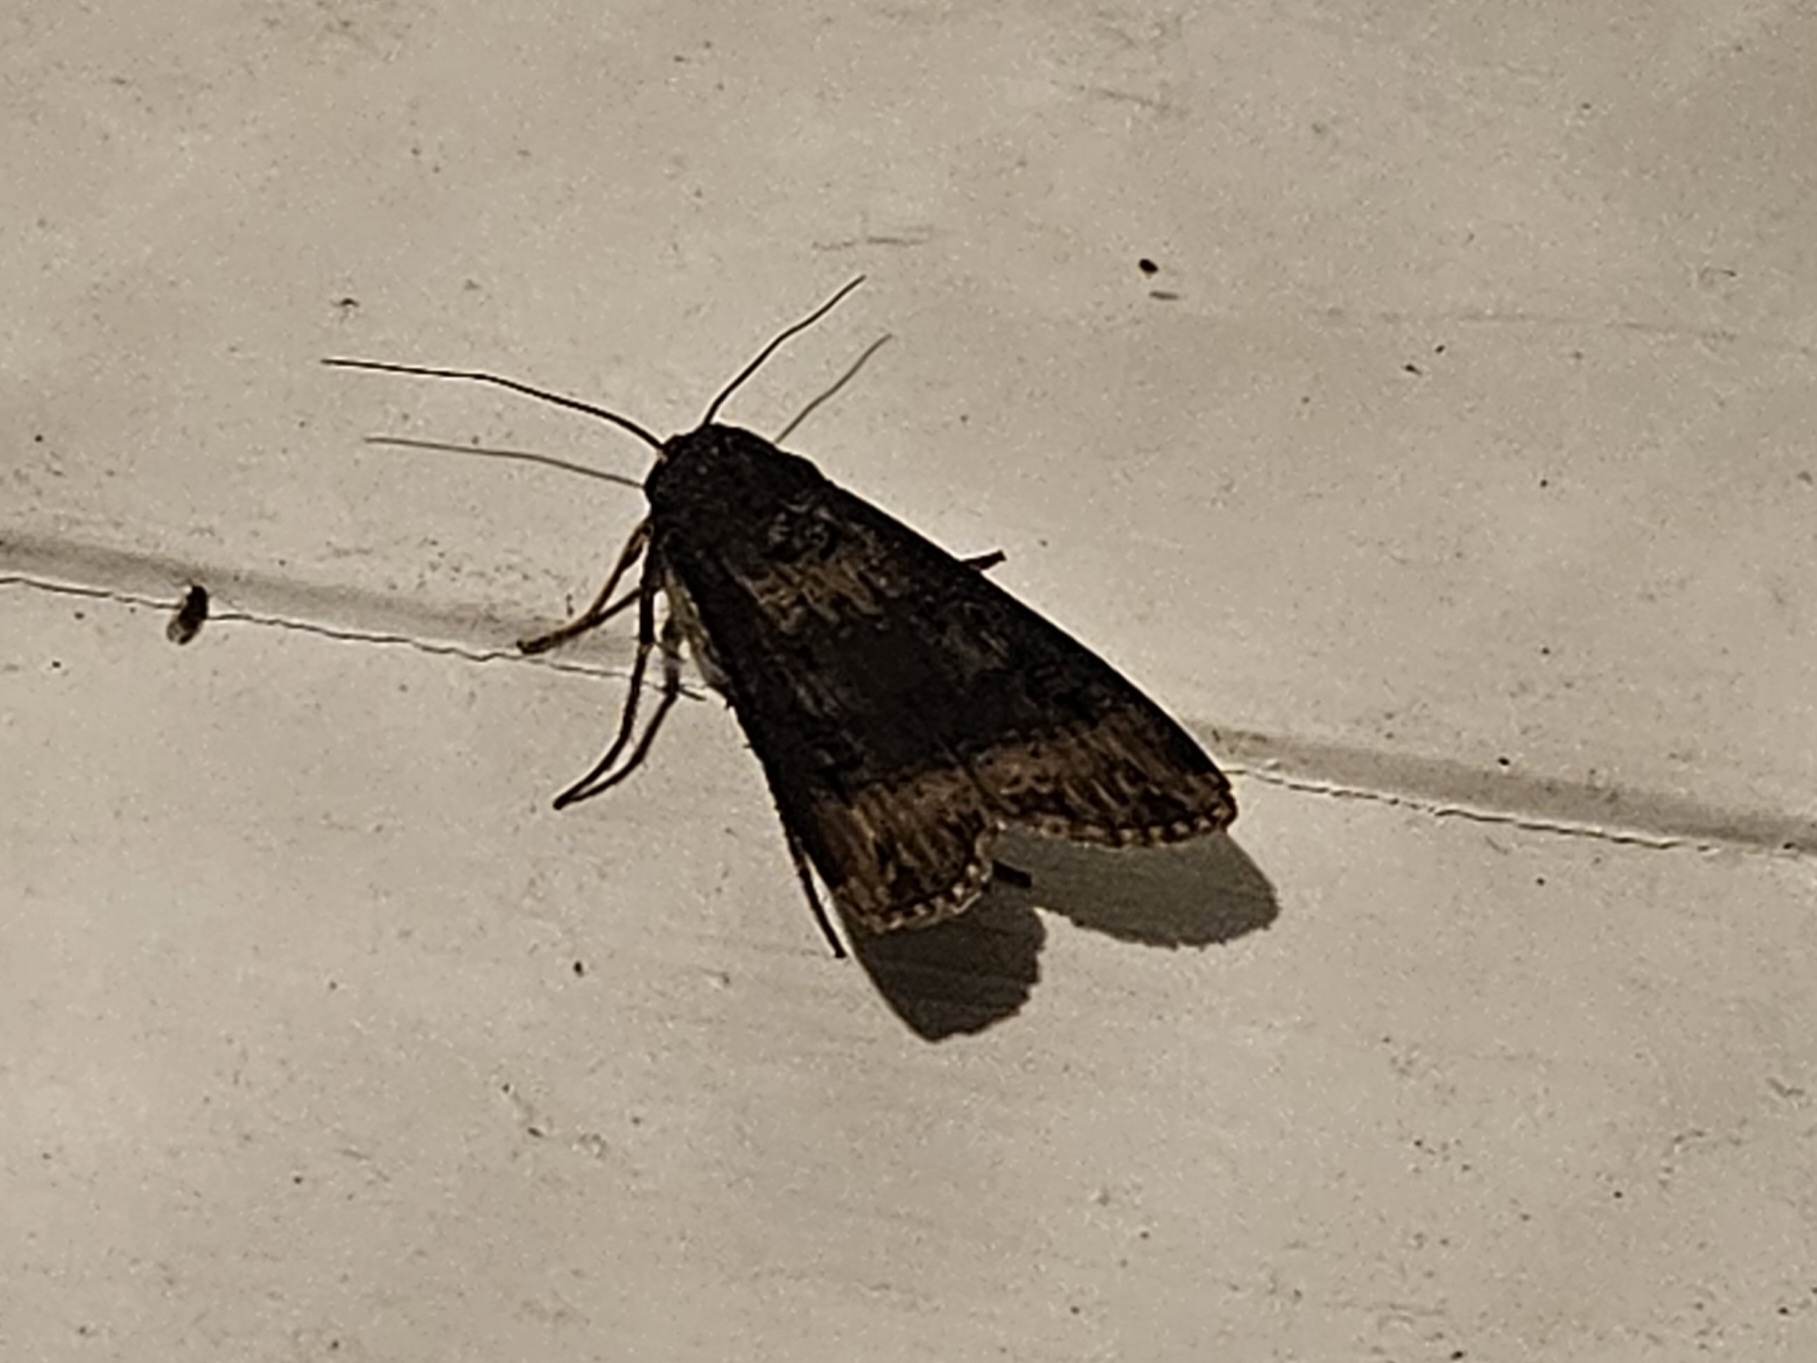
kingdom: Animalia
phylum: Arthropoda
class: Insecta
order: Lepidoptera
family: Noctuidae
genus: Agrotis
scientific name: Agrotis ipsilon
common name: Dark sword-grass
